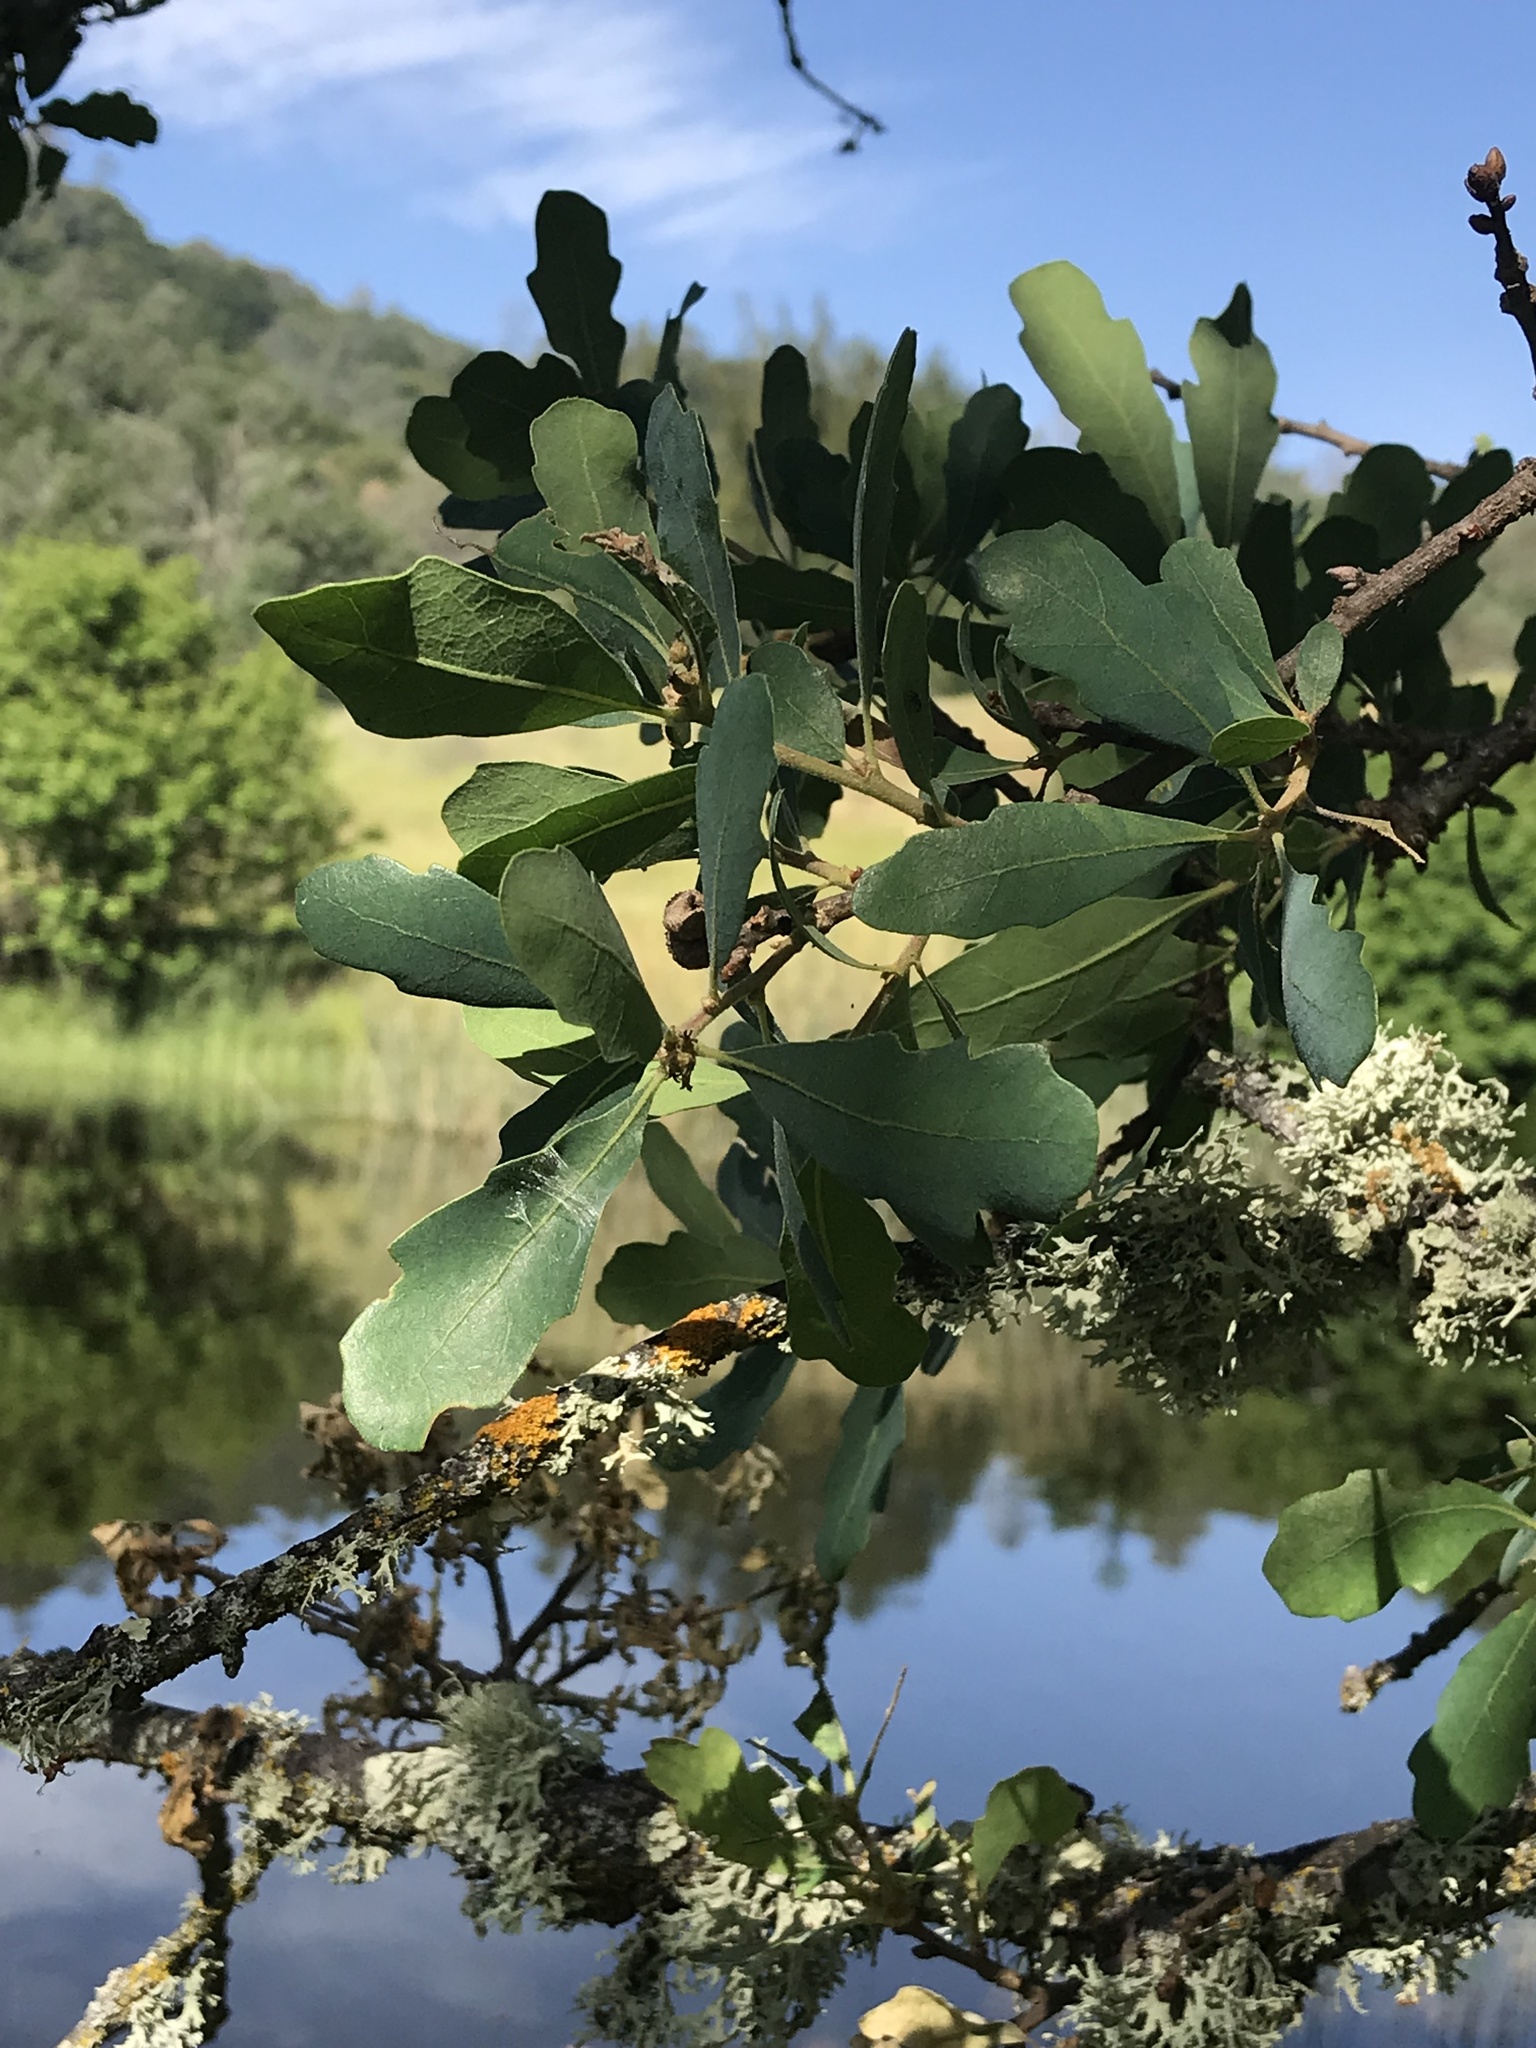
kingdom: Plantae
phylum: Tracheophyta
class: Magnoliopsida
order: Fagales
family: Fagaceae
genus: Quercus
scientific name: Quercus douglasii
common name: Blue oak
